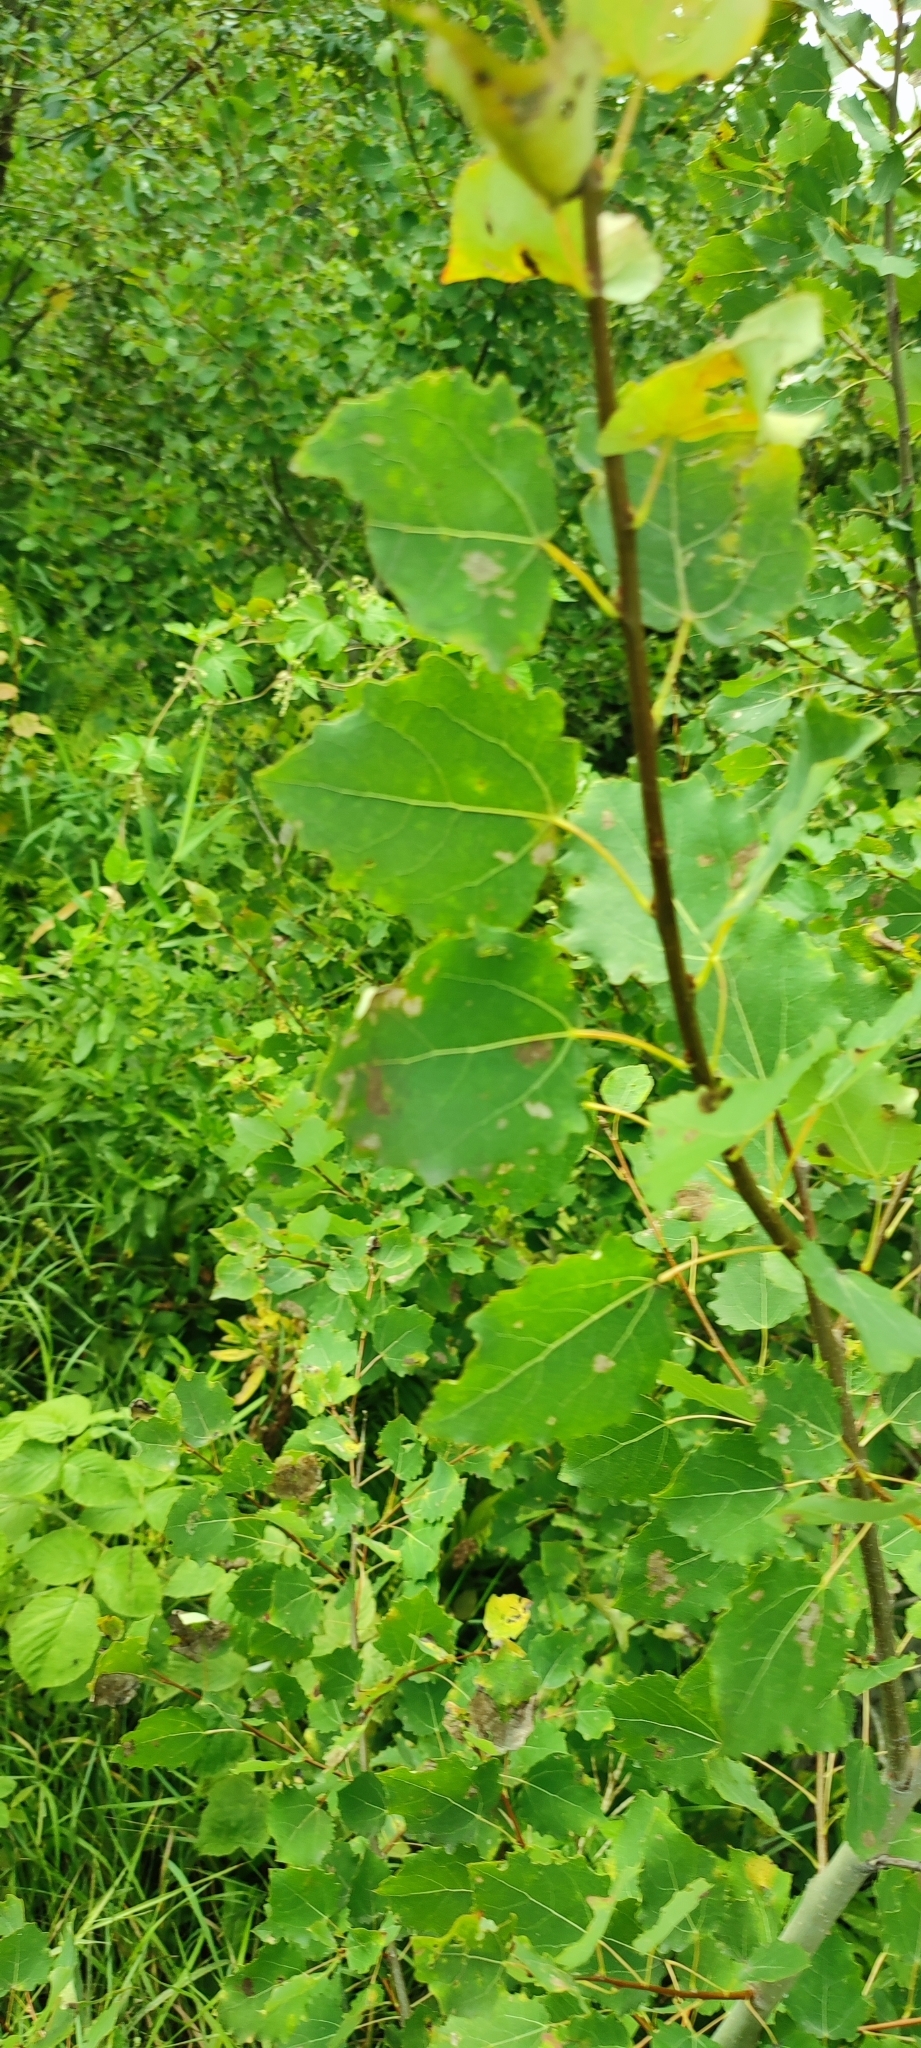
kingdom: Plantae
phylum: Tracheophyta
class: Magnoliopsida
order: Malpighiales
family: Salicaceae
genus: Populus
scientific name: Populus tremula
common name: European aspen
